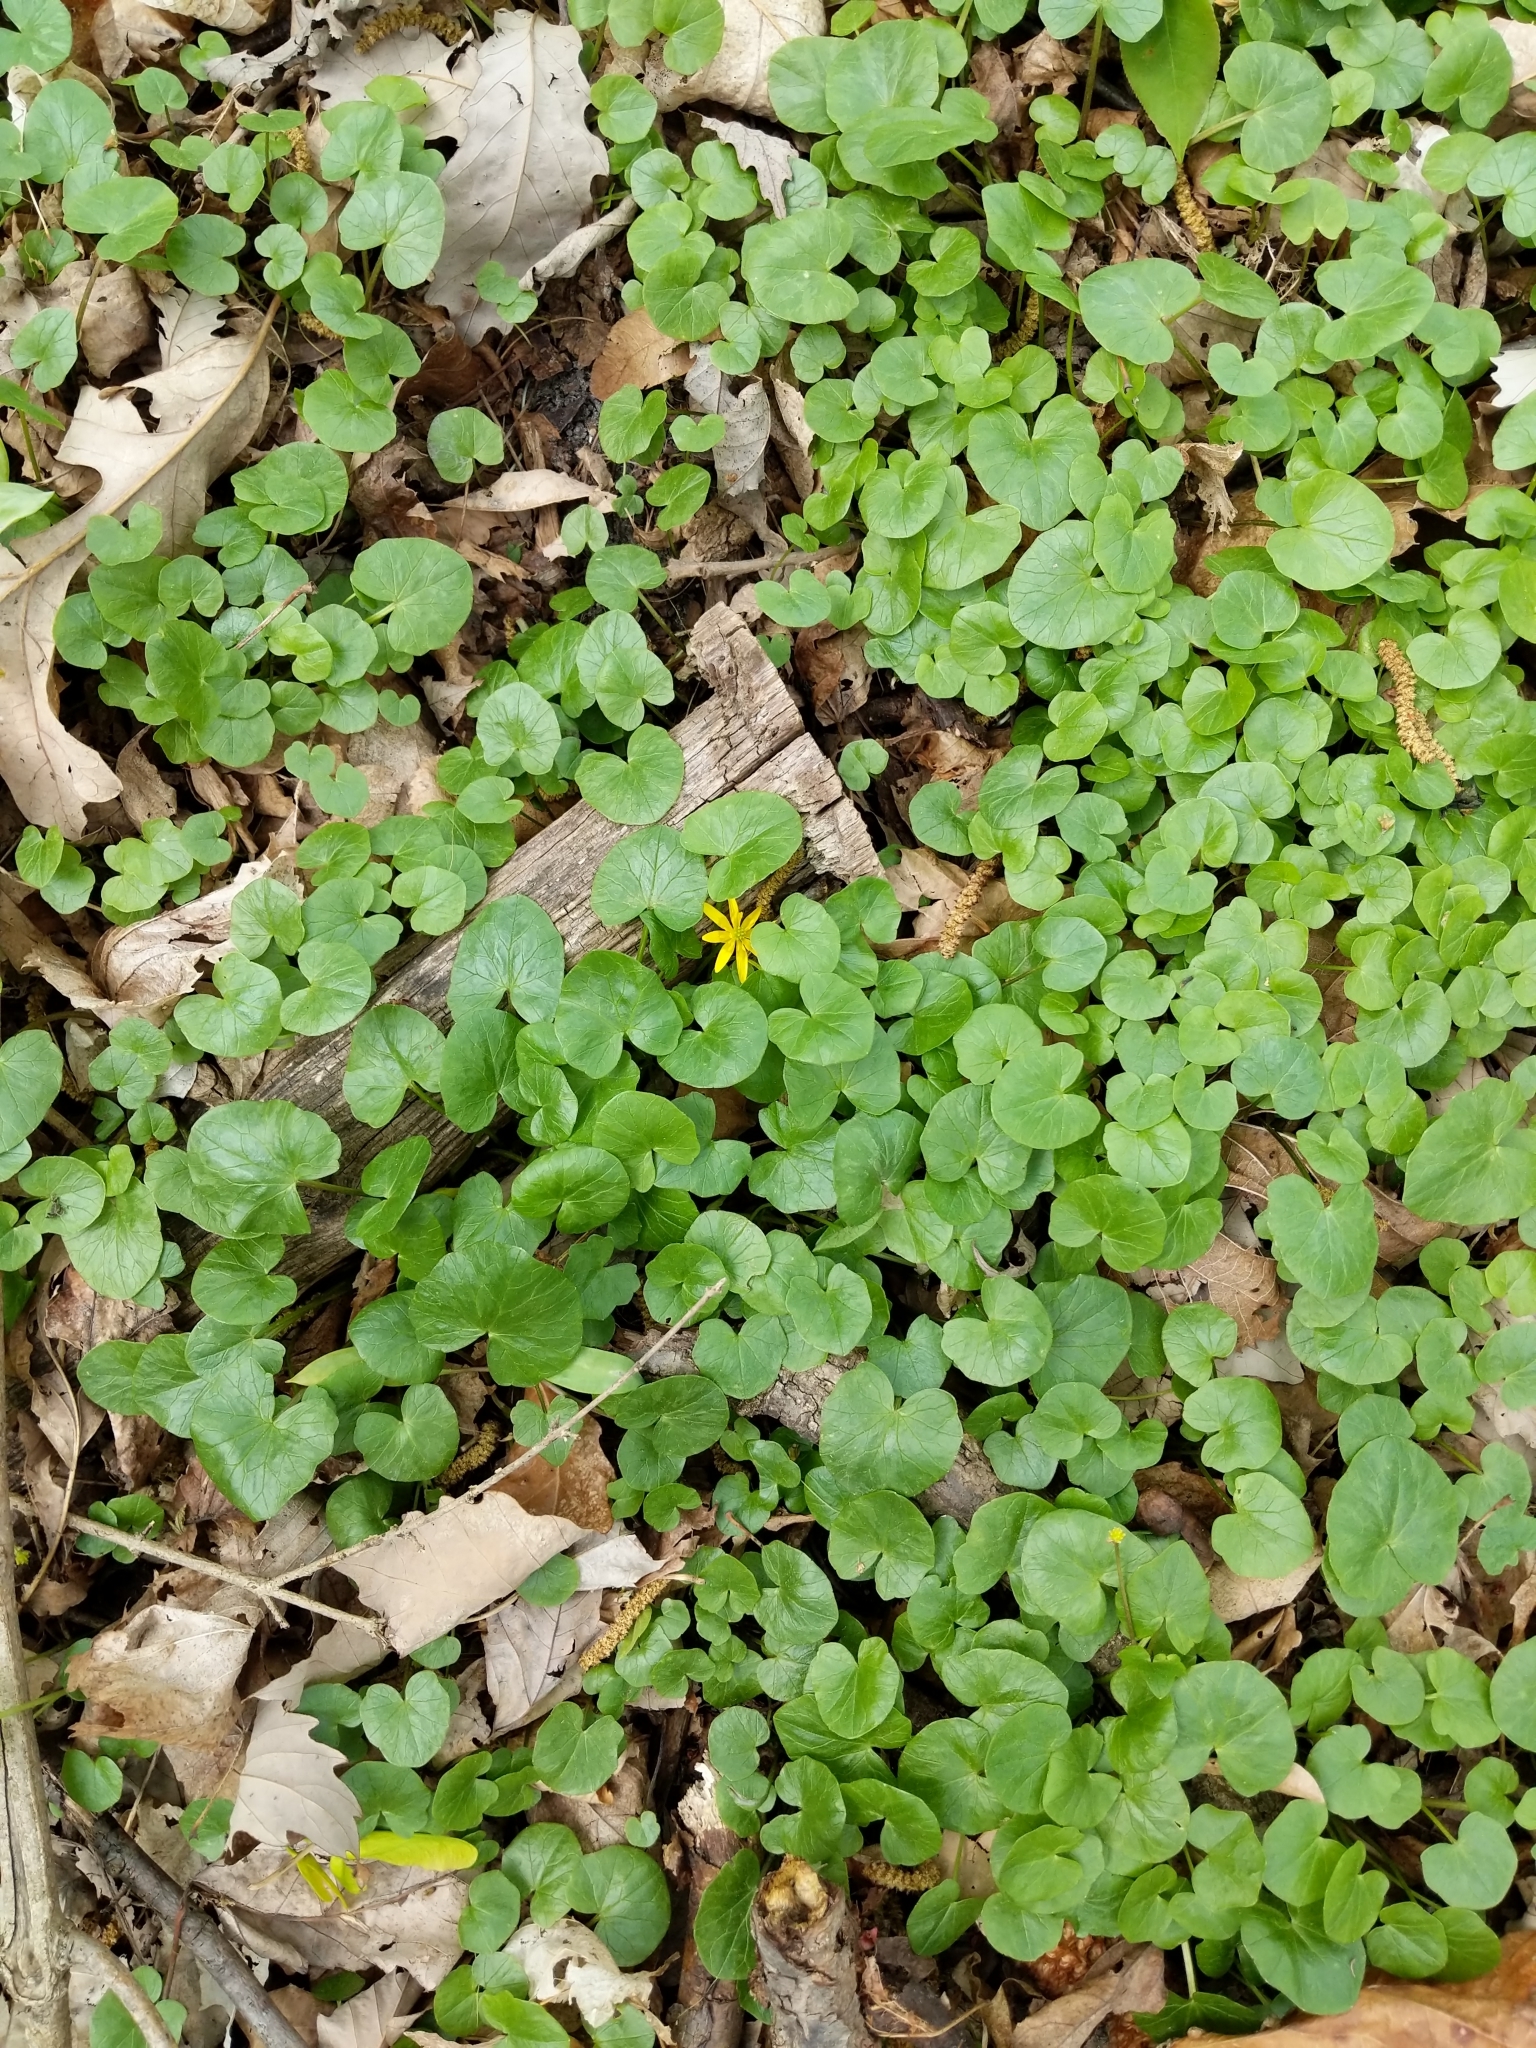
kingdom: Plantae
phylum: Tracheophyta
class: Magnoliopsida
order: Ranunculales
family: Ranunculaceae
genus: Ficaria
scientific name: Ficaria verna
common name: Lesser celandine
